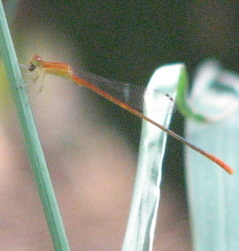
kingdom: Animalia
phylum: Arthropoda
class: Insecta
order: Odonata
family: Coenagrionidae
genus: Leptobasis
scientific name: Leptobasis vacillans
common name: Red-tipped swampdamsel
